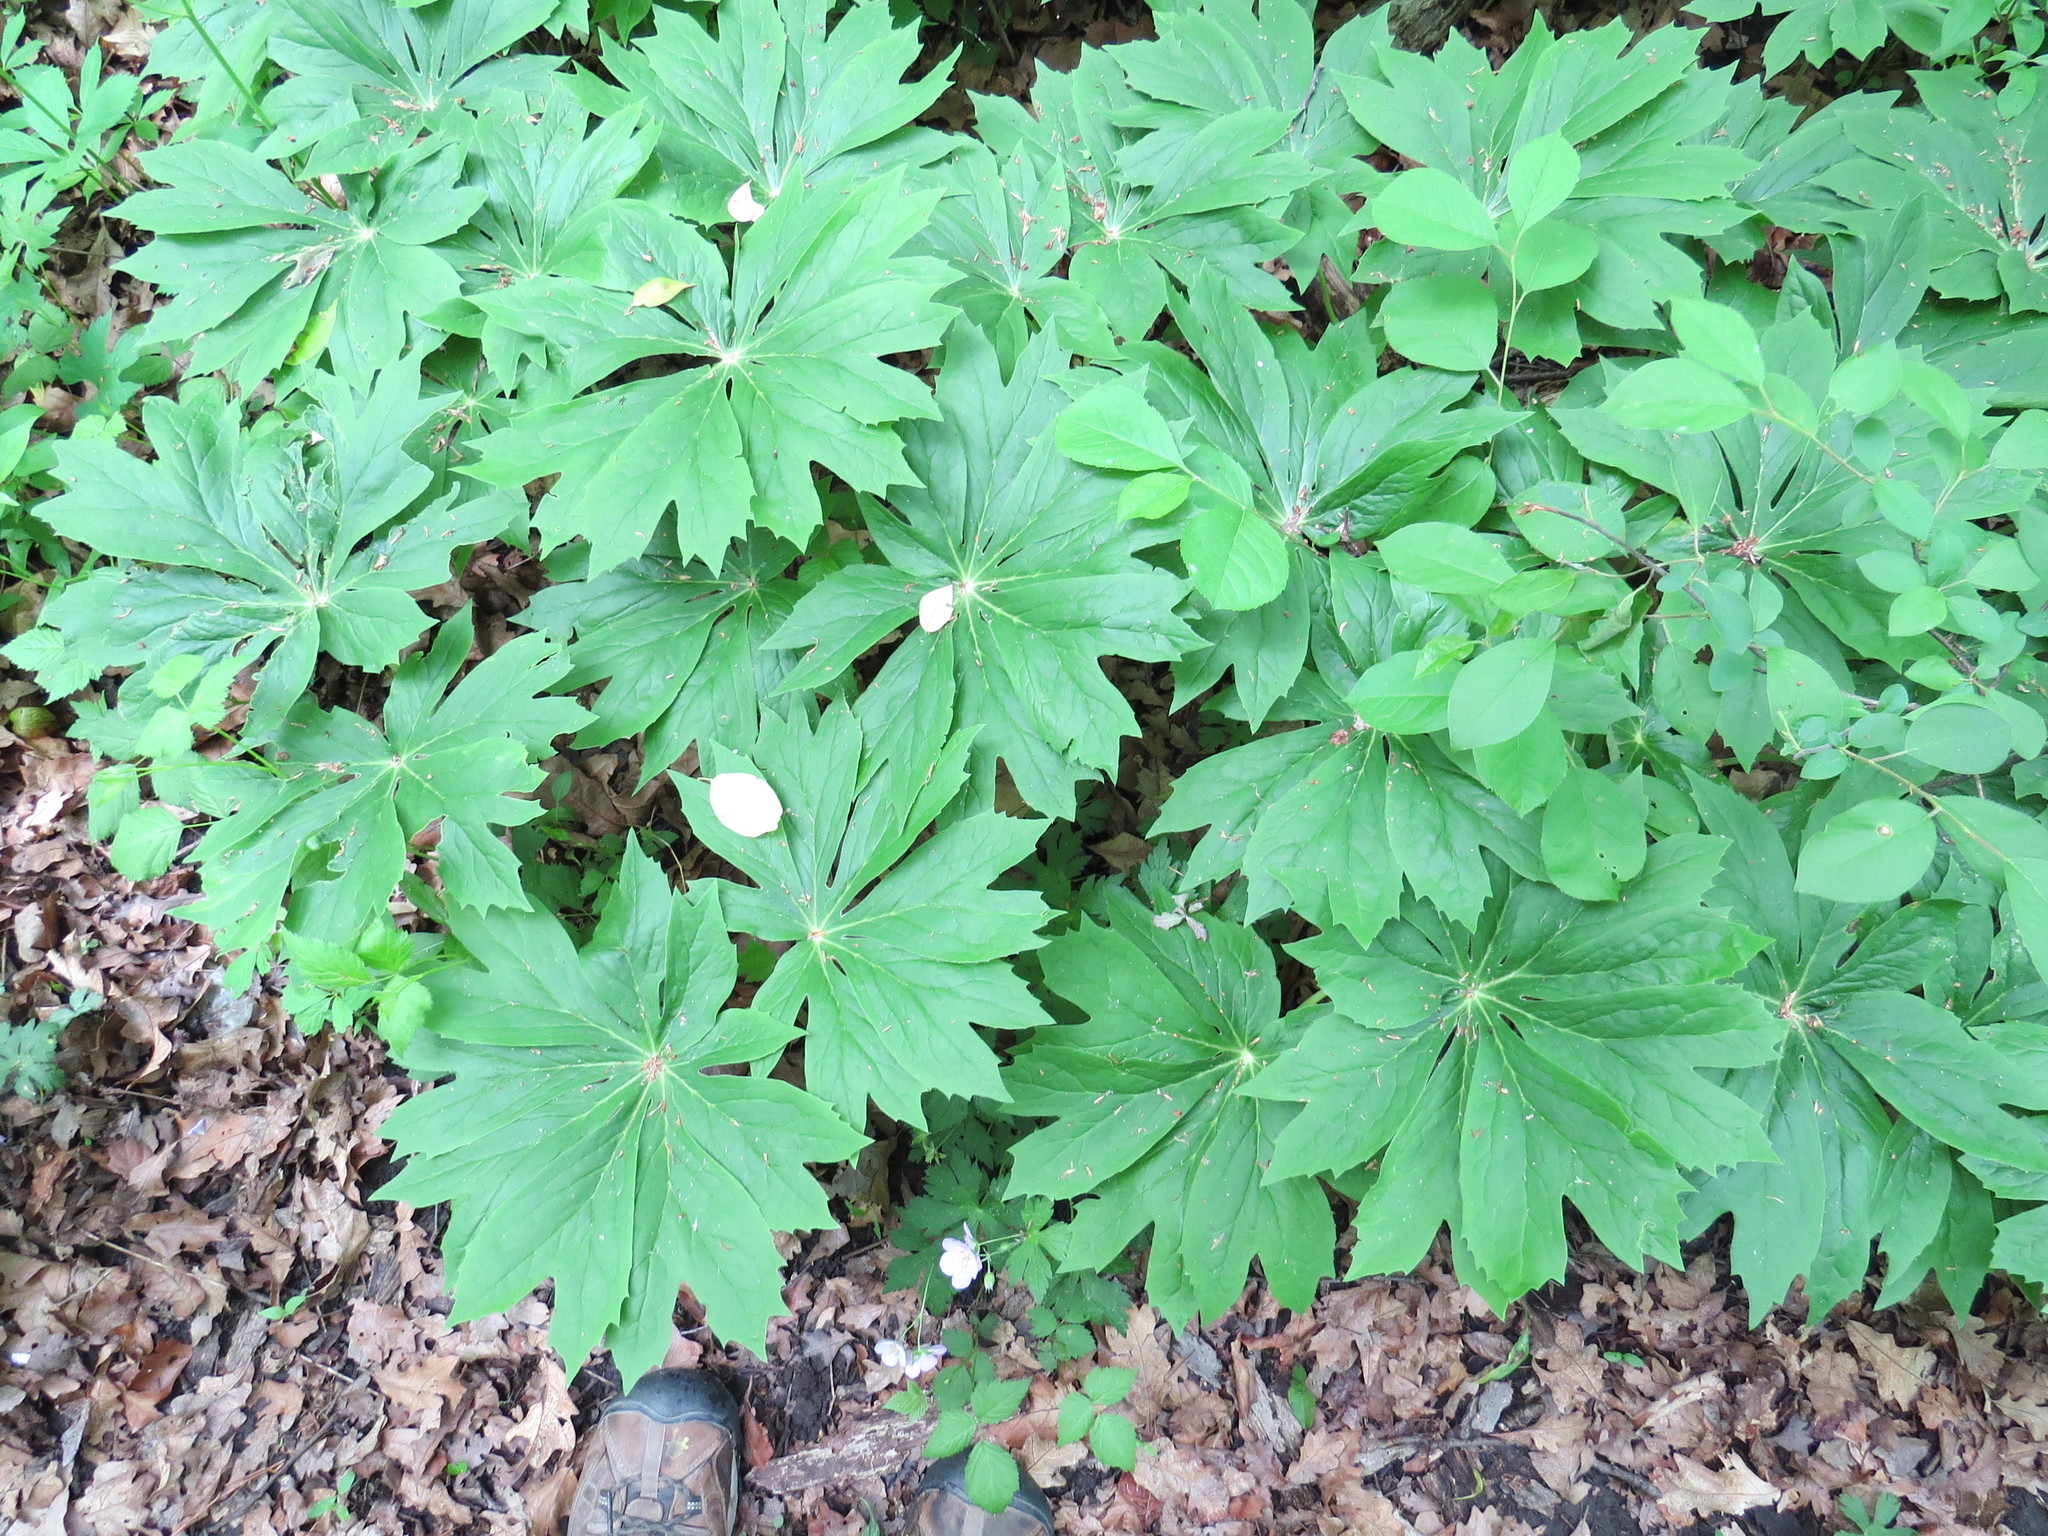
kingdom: Plantae
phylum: Tracheophyta
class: Magnoliopsida
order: Ranunculales
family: Berberidaceae
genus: Podophyllum
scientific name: Podophyllum peltatum
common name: Wild mandrake
